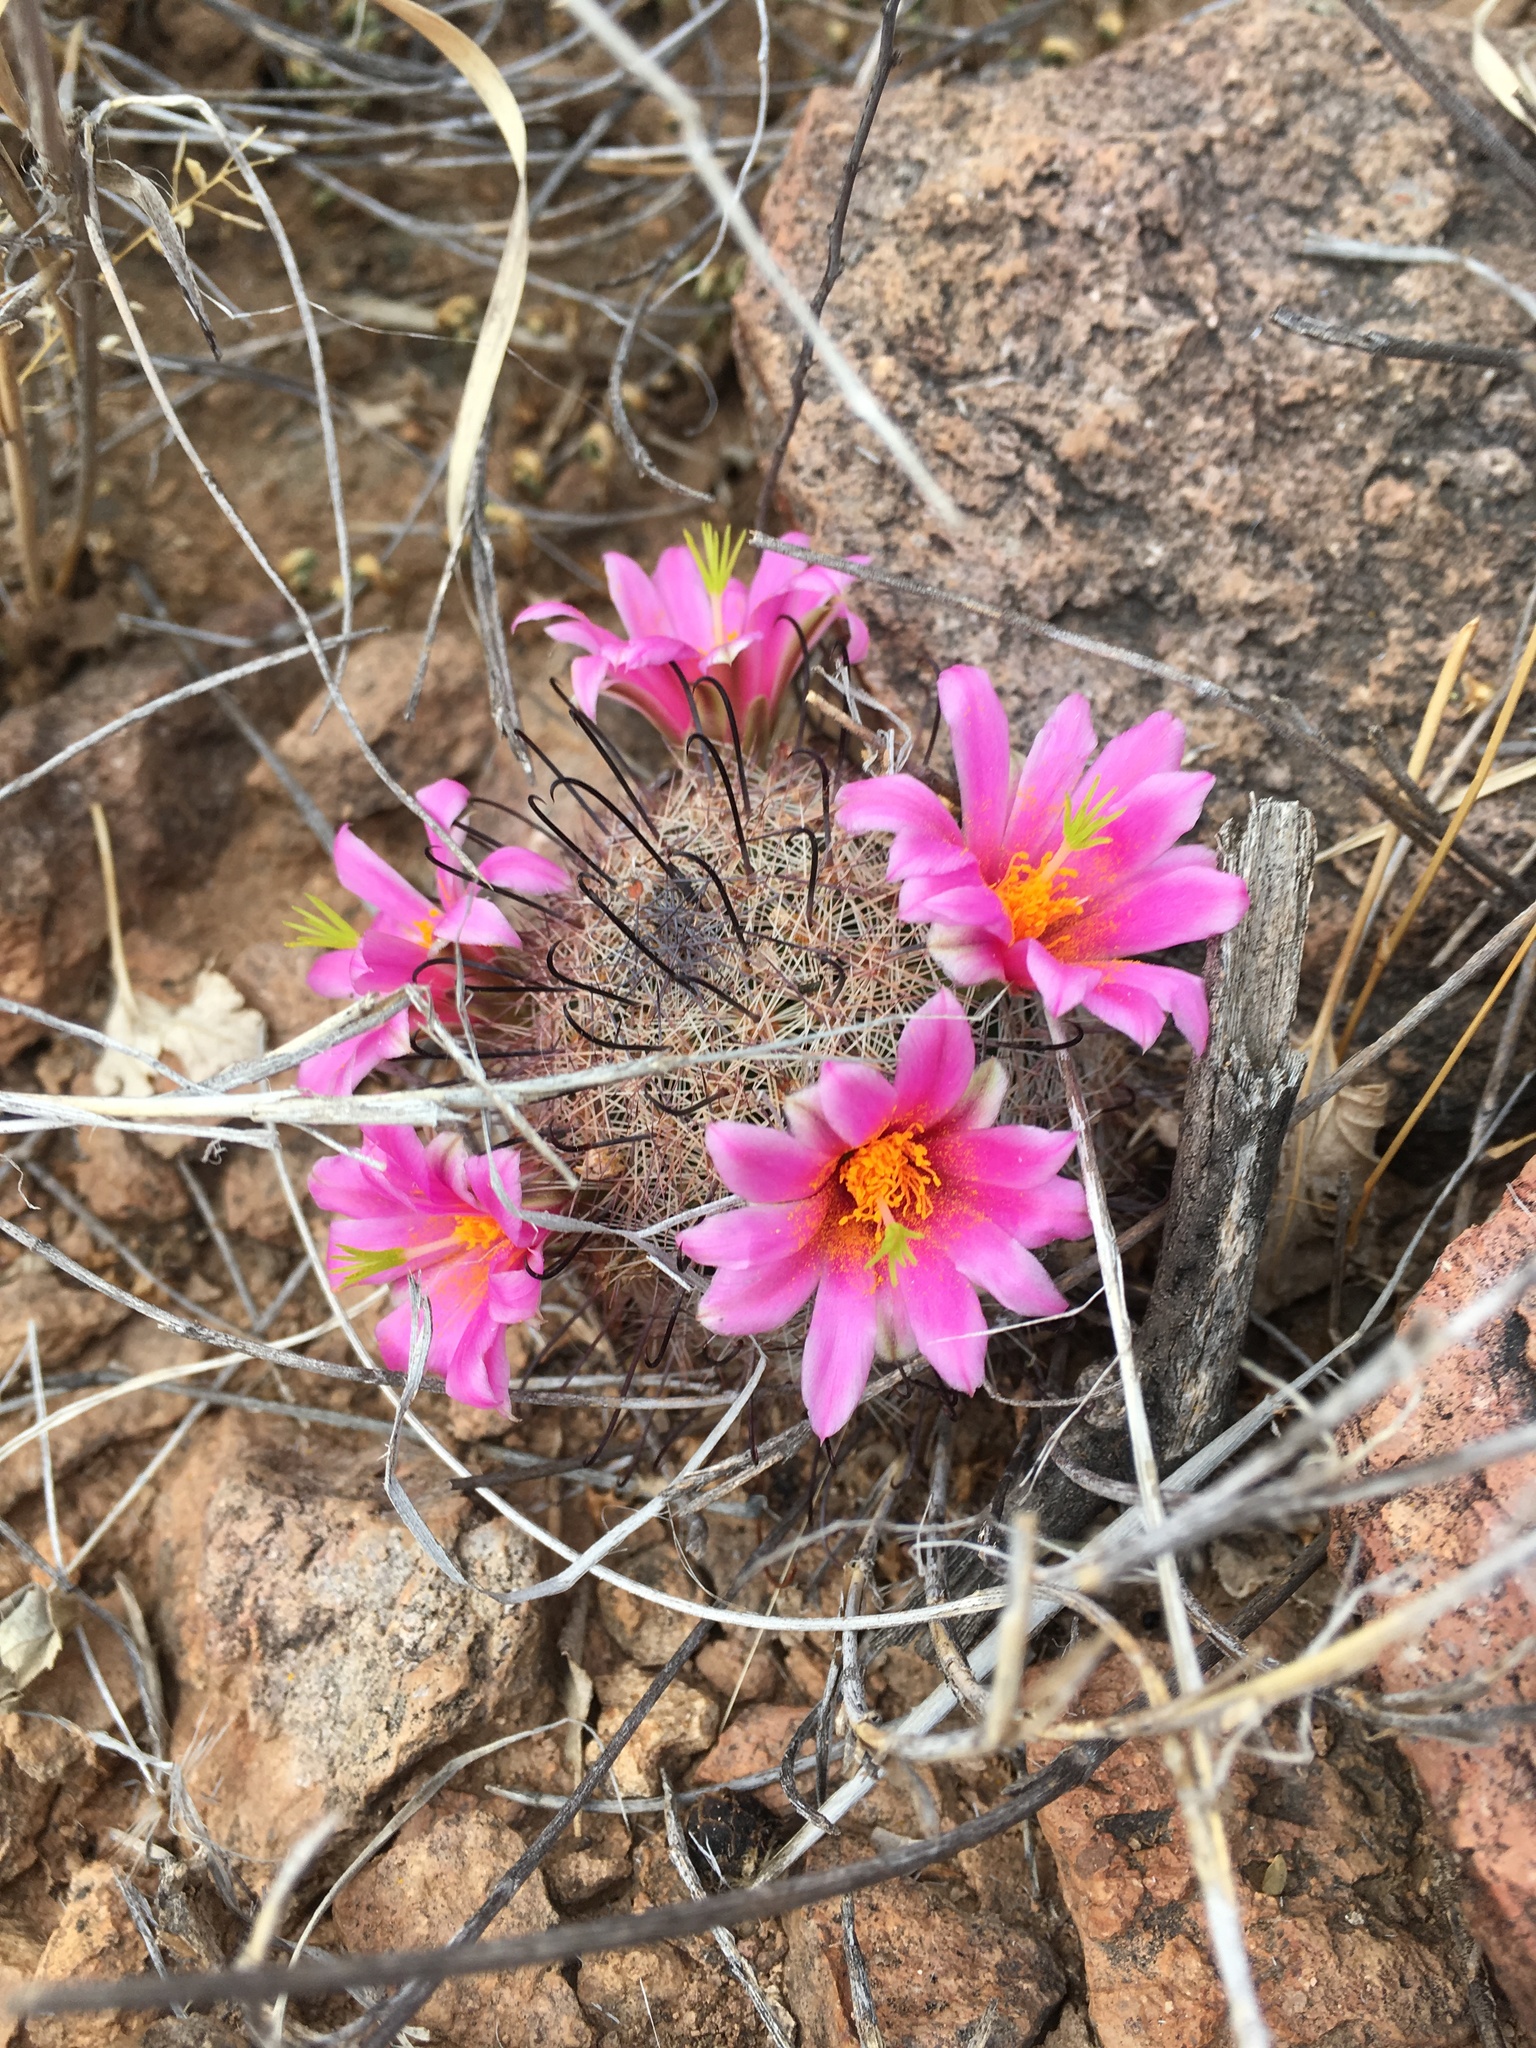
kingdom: Plantae
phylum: Tracheophyta
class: Magnoliopsida
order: Caryophyllales
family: Cactaceae
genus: Cochemiea
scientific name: Cochemiea grahamii
